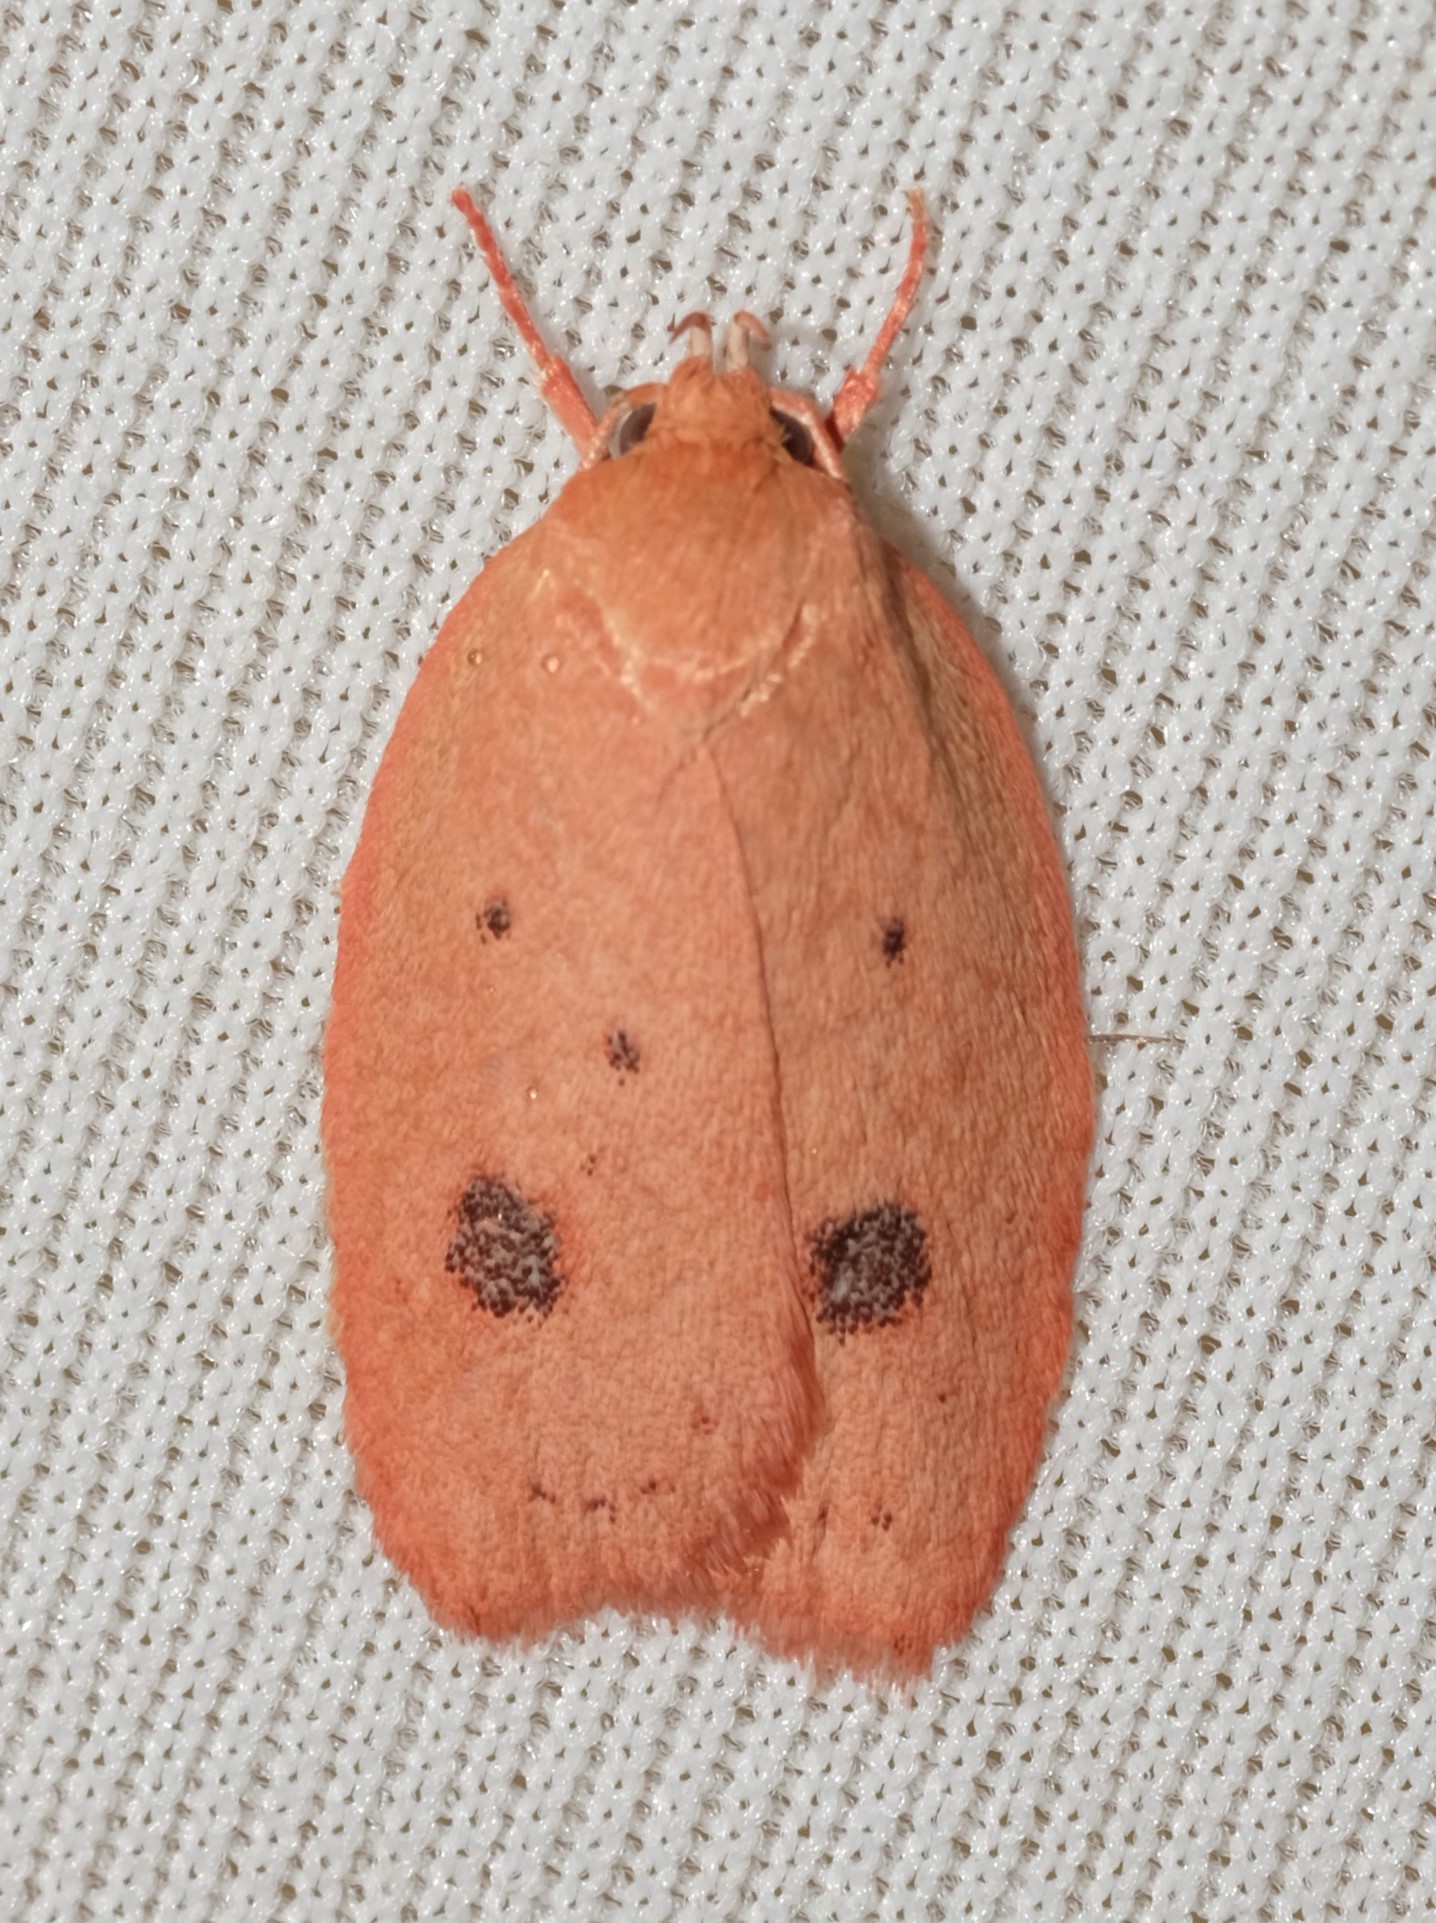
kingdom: Animalia
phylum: Arthropoda
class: Insecta
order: Lepidoptera
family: Oecophoridae
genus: Garrha
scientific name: Garrha pudica
